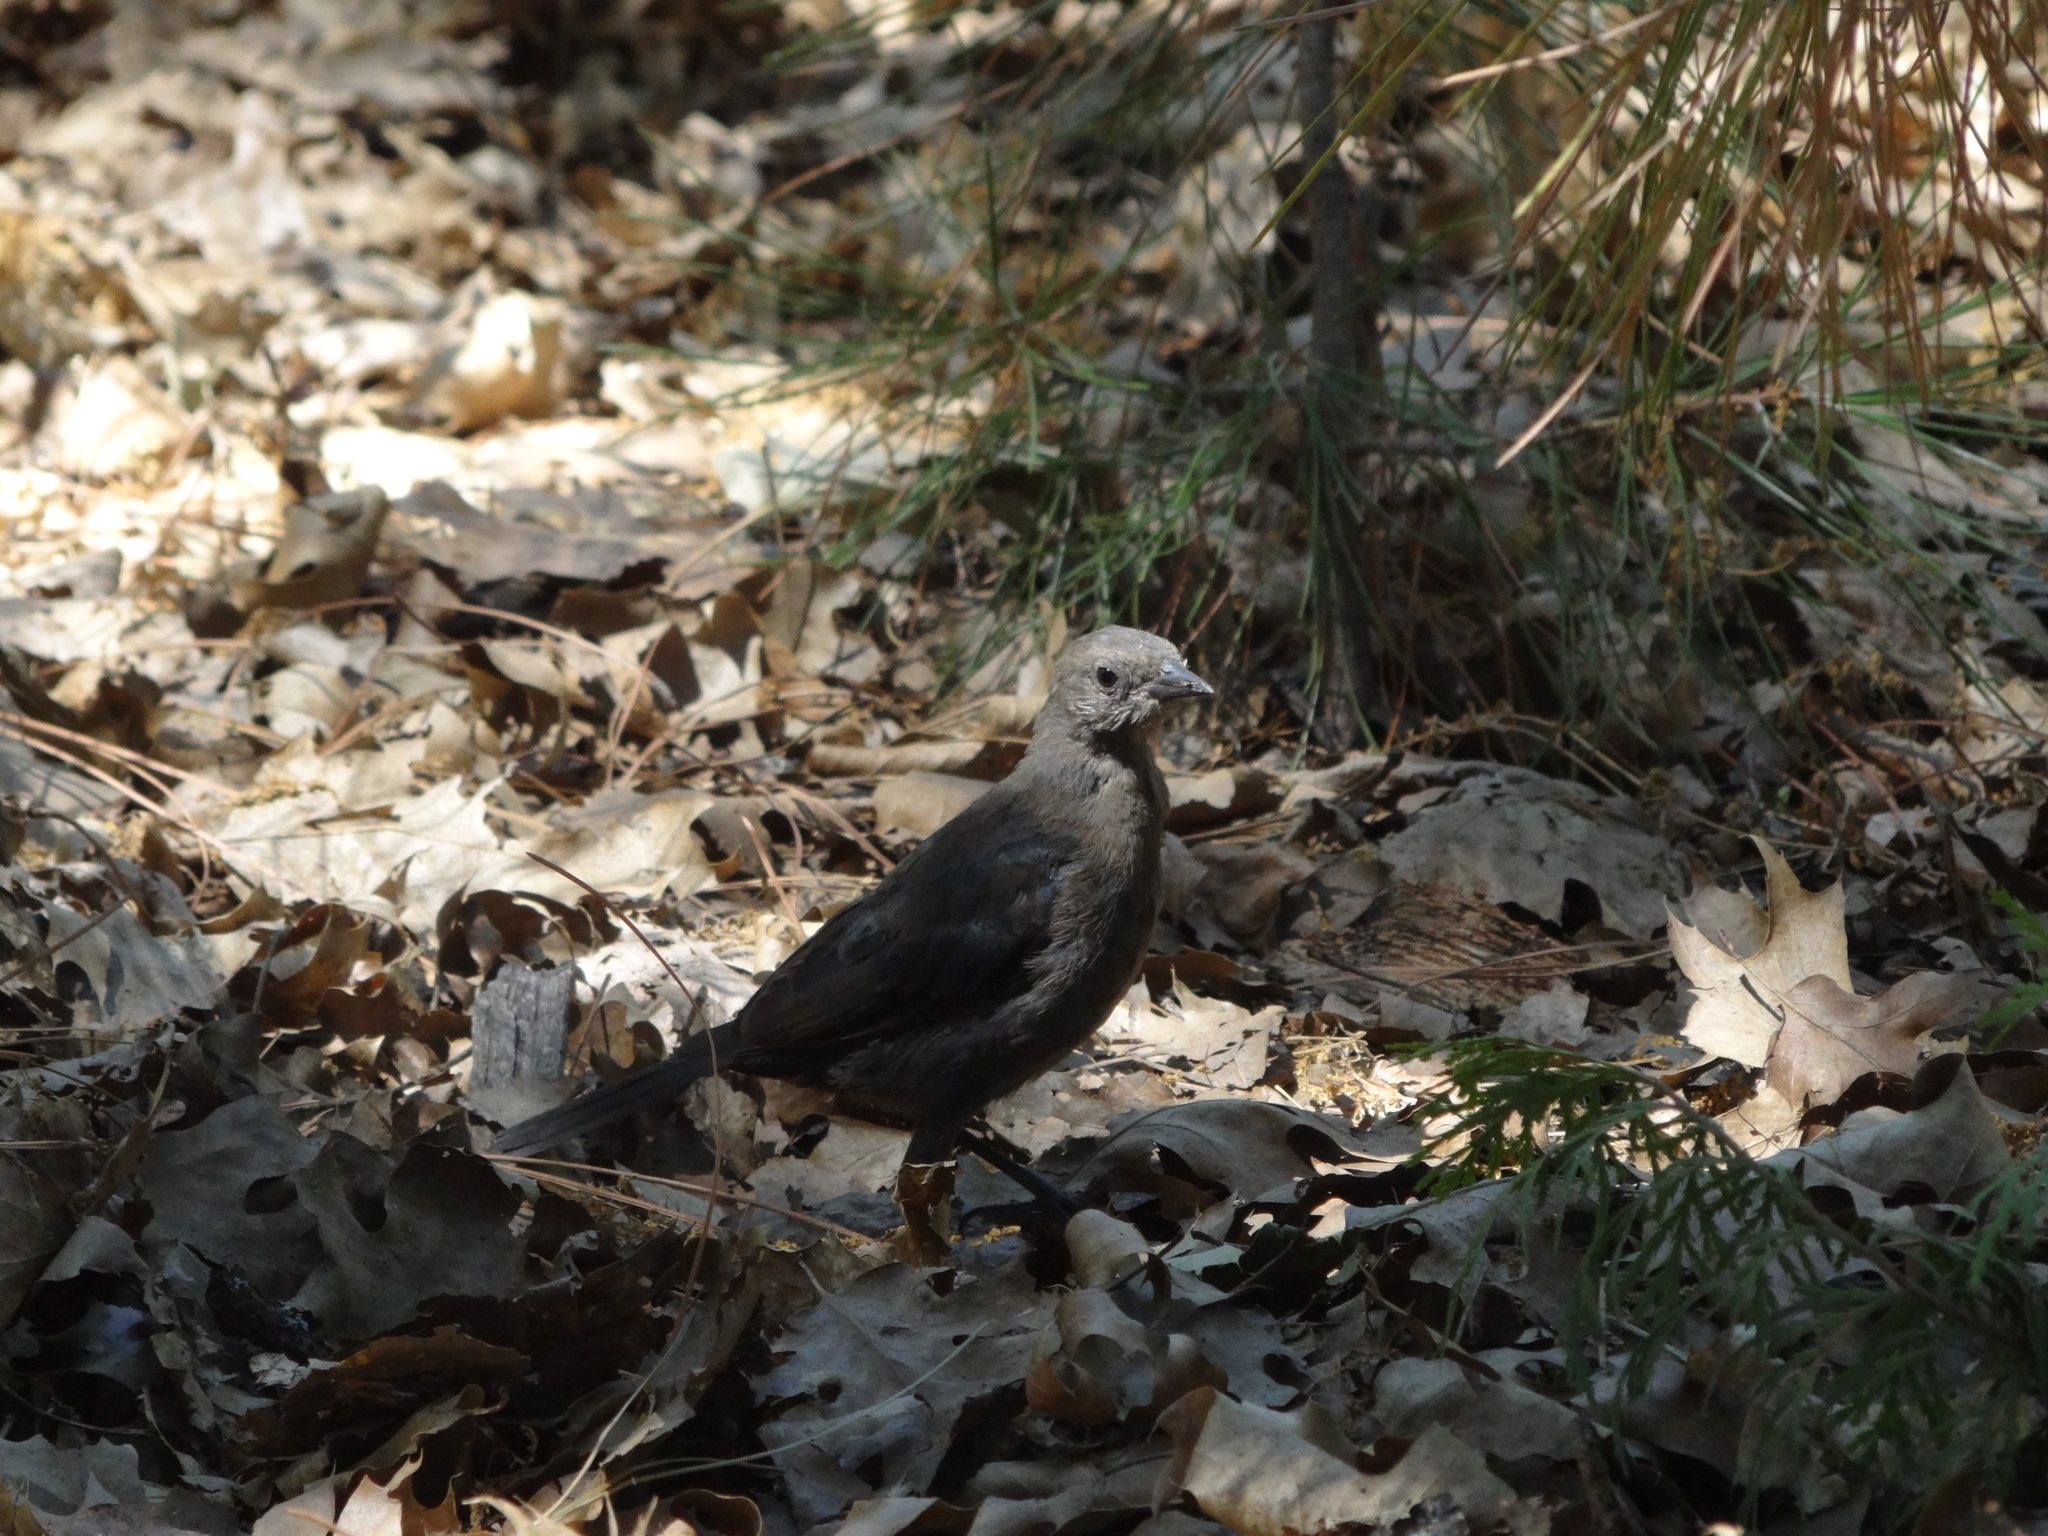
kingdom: Animalia
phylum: Chordata
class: Aves
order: Passeriformes
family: Icteridae
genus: Euphagus
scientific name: Euphagus cyanocephalus
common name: Brewer's blackbird
